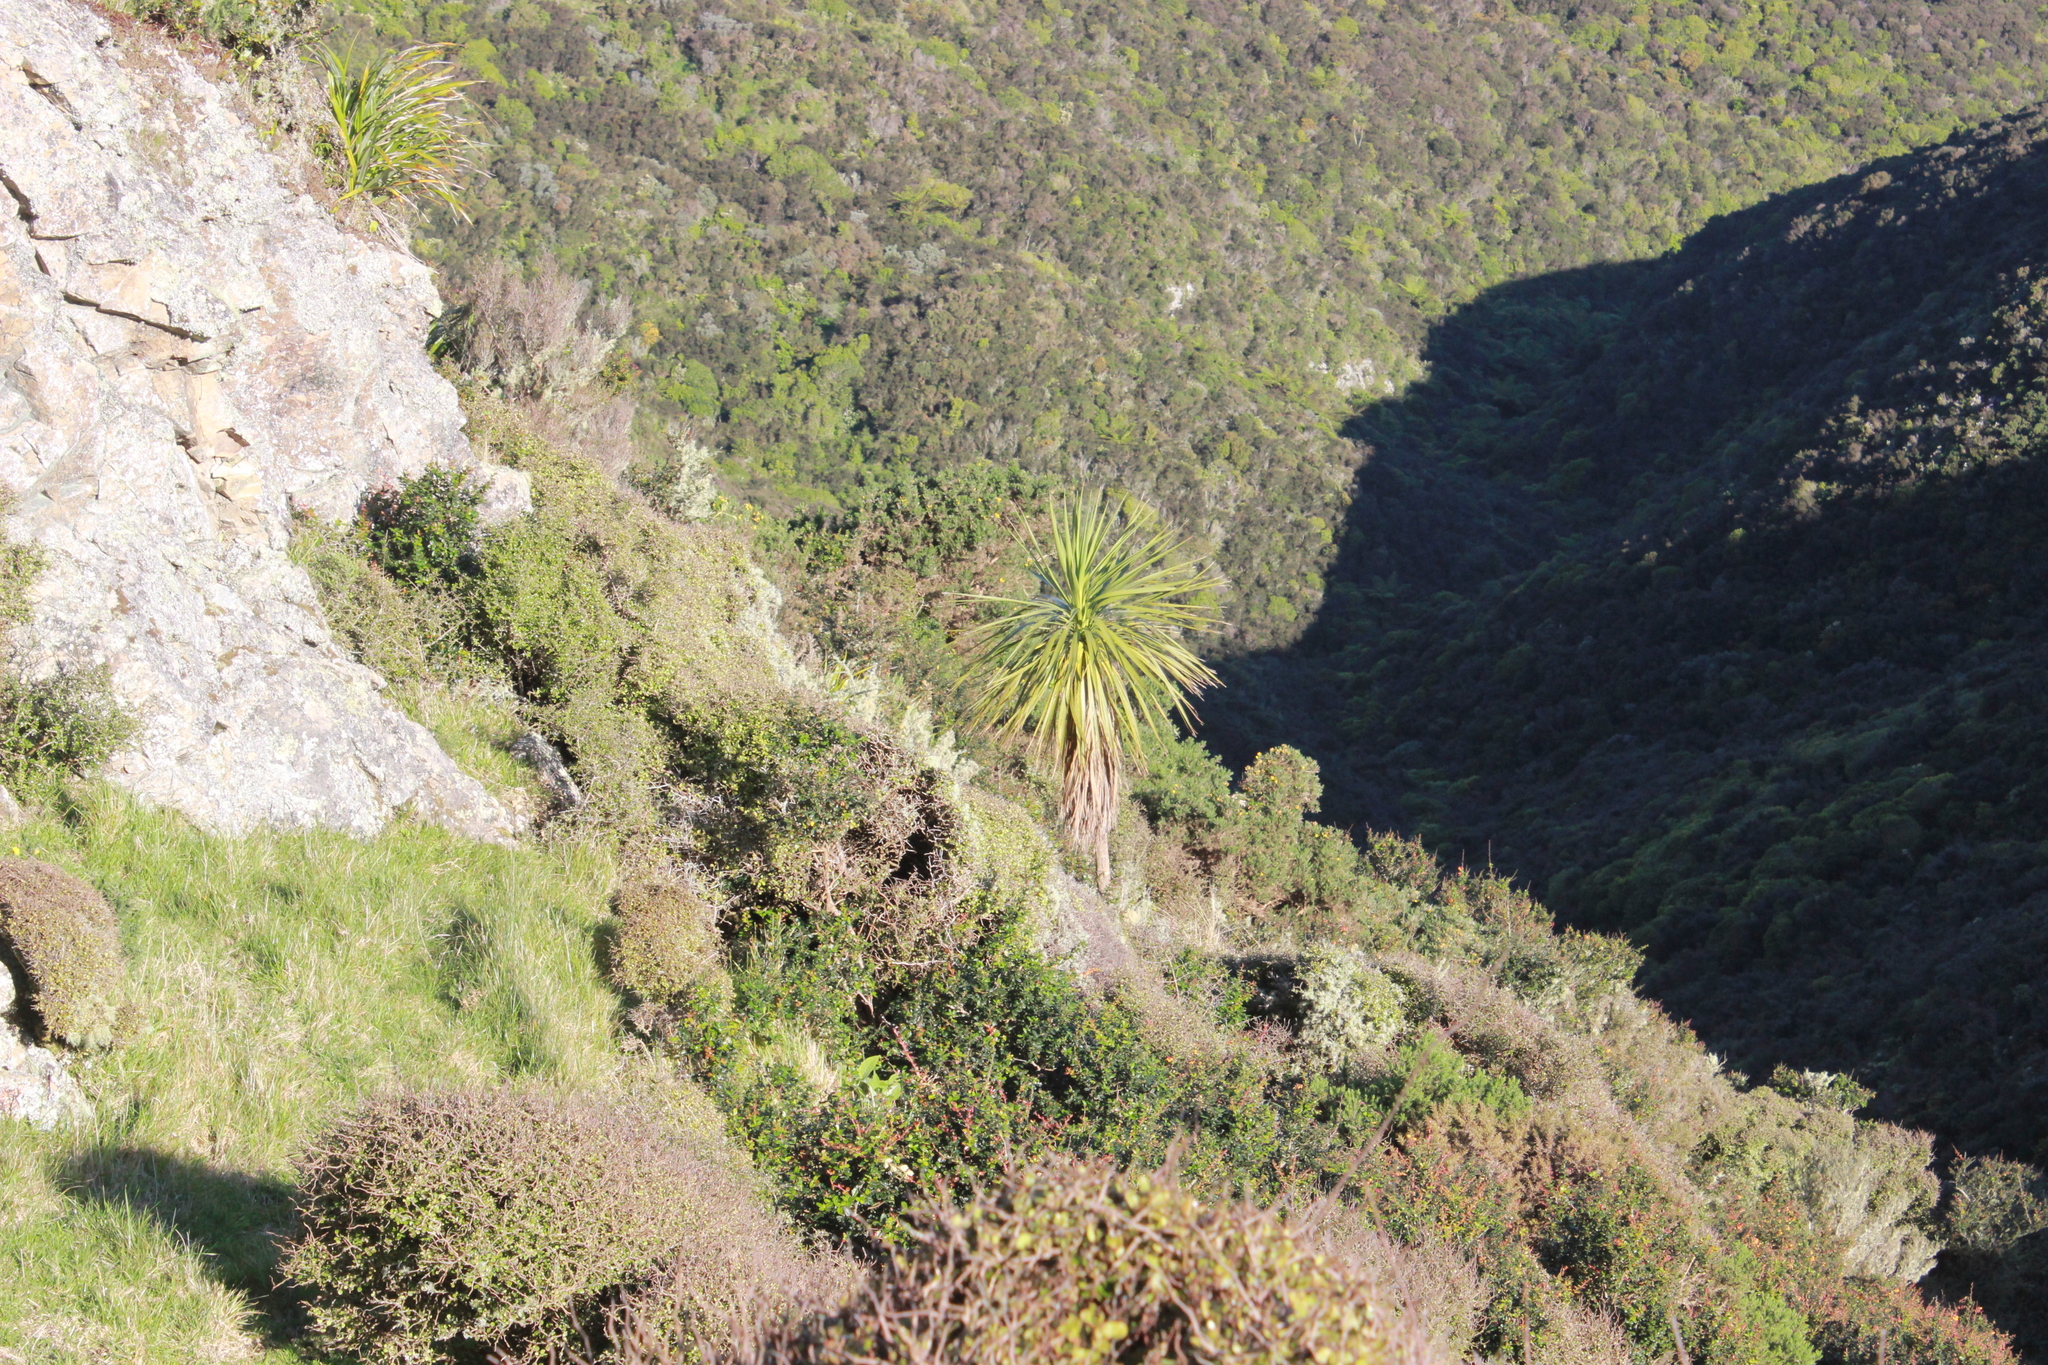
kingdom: Plantae
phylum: Tracheophyta
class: Liliopsida
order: Asparagales
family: Asparagaceae
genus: Cordyline
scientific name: Cordyline australis
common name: Cabbage-palm
